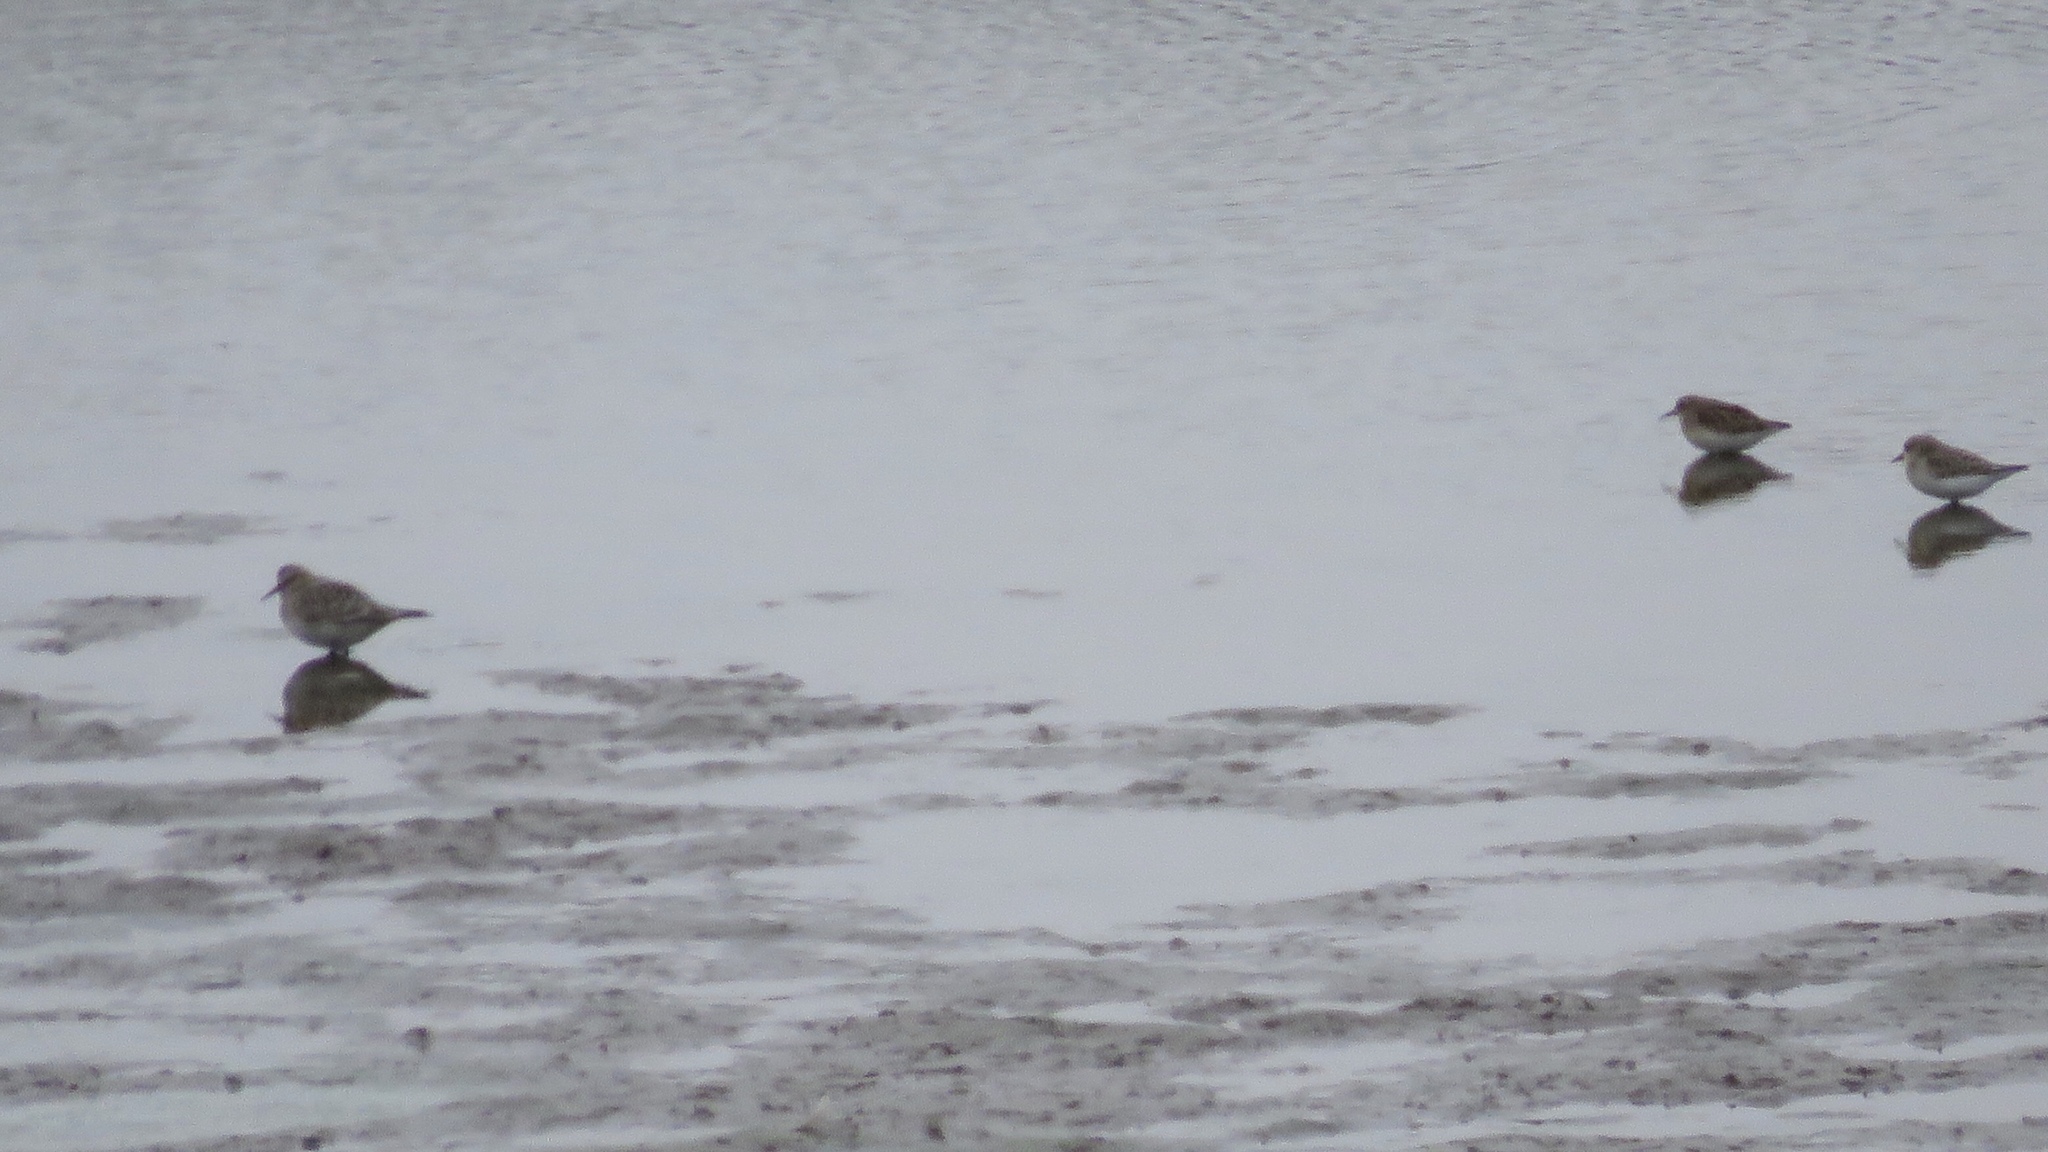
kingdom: Animalia
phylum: Chordata
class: Aves
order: Charadriiformes
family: Scolopacidae
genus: Calidris
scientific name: Calidris bairdii
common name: Baird's sandpiper
